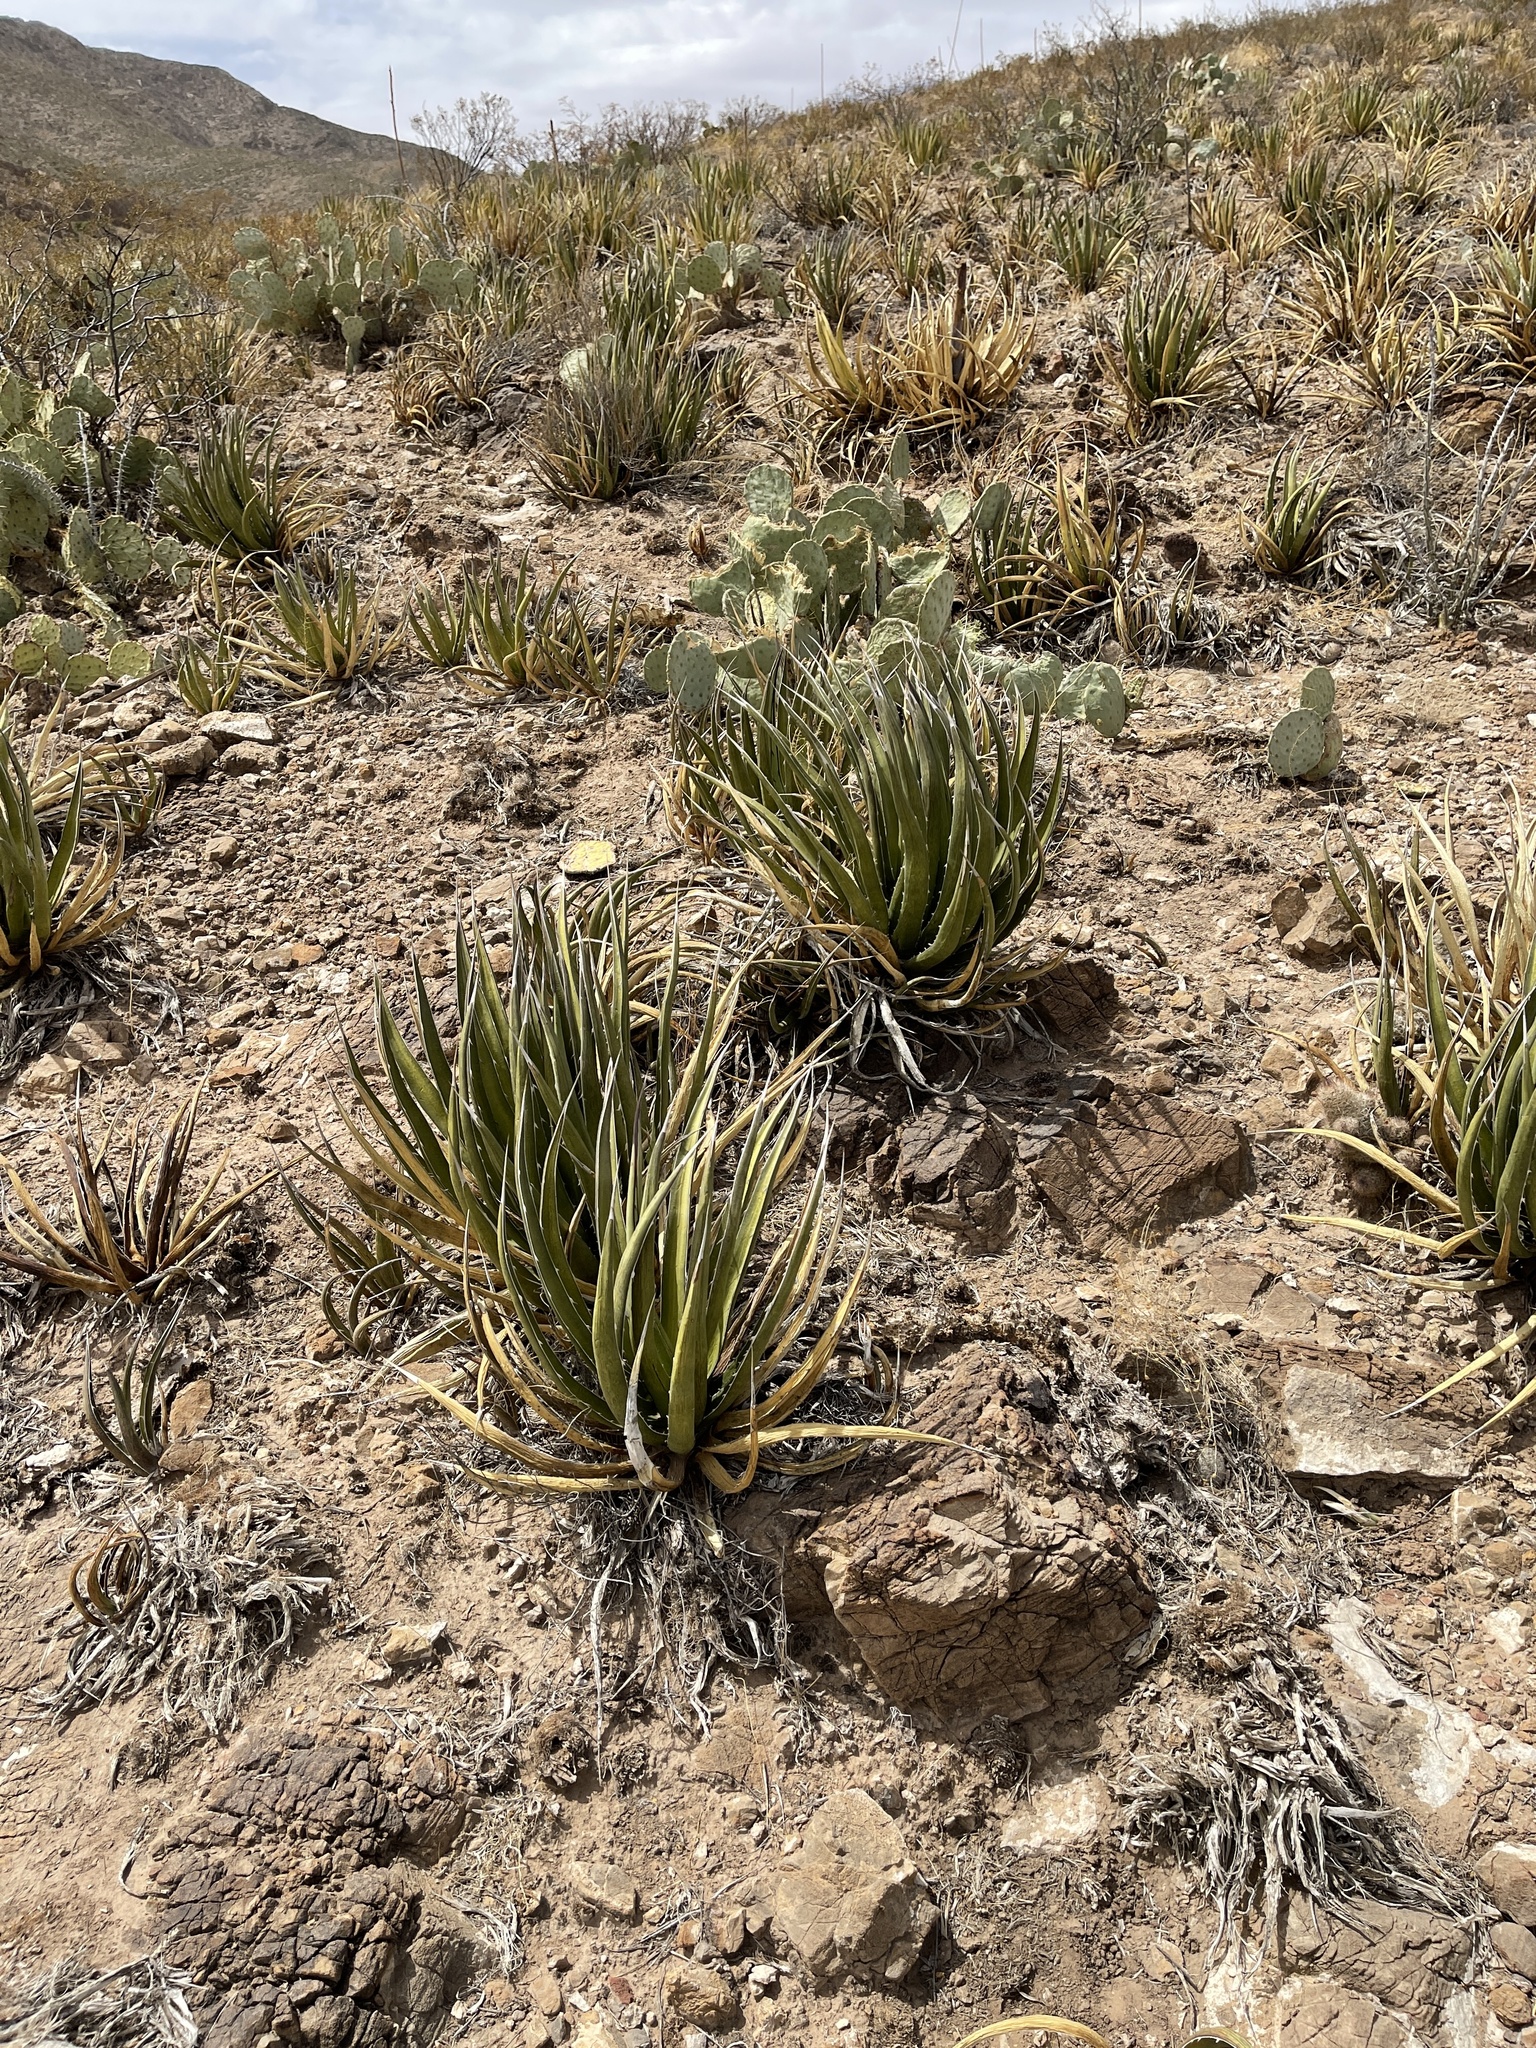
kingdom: Plantae
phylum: Tracheophyta
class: Liliopsida
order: Asparagales
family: Asparagaceae
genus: Agave
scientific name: Agave lechuguilla
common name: Lecheguilla agave
